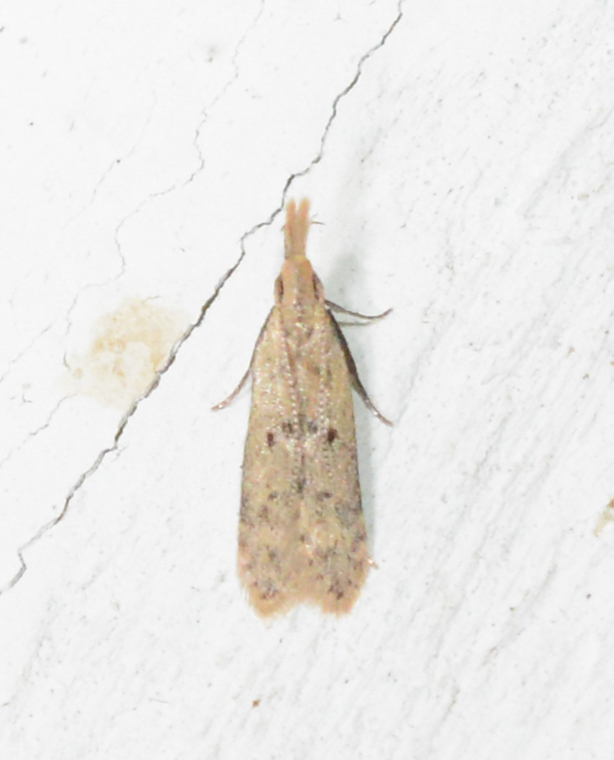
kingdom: Animalia
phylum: Arthropoda
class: Insecta
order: Lepidoptera
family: Gelechiidae
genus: Dichomeris
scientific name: Dichomeris punctidiscellus
